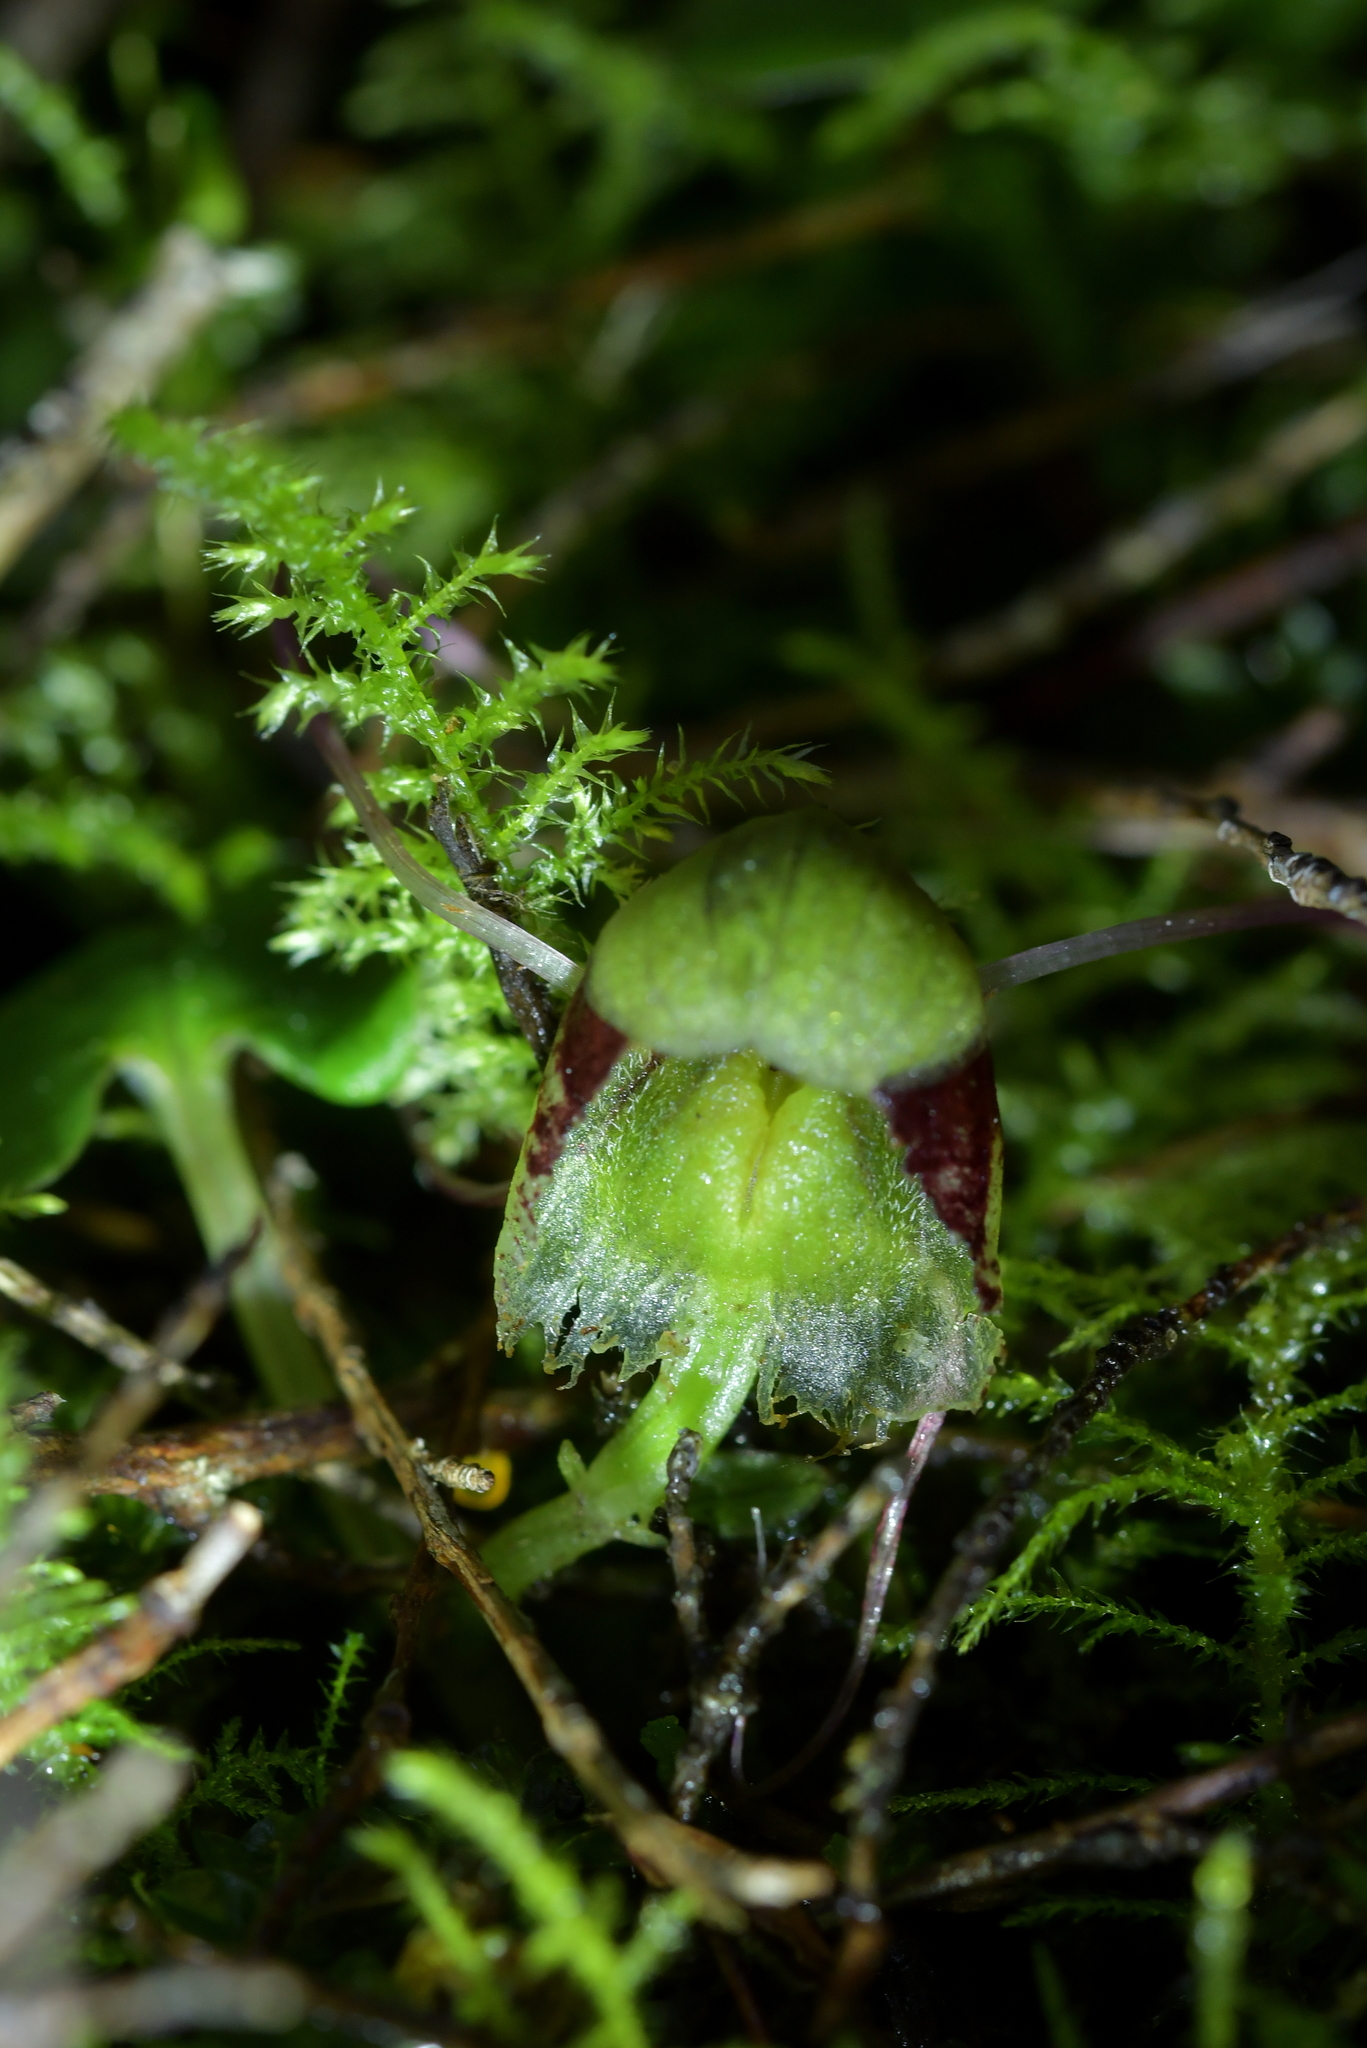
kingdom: Plantae
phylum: Tracheophyta
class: Liliopsida
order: Asparagales
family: Orchidaceae
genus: Corybas
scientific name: Corybas vitreus
